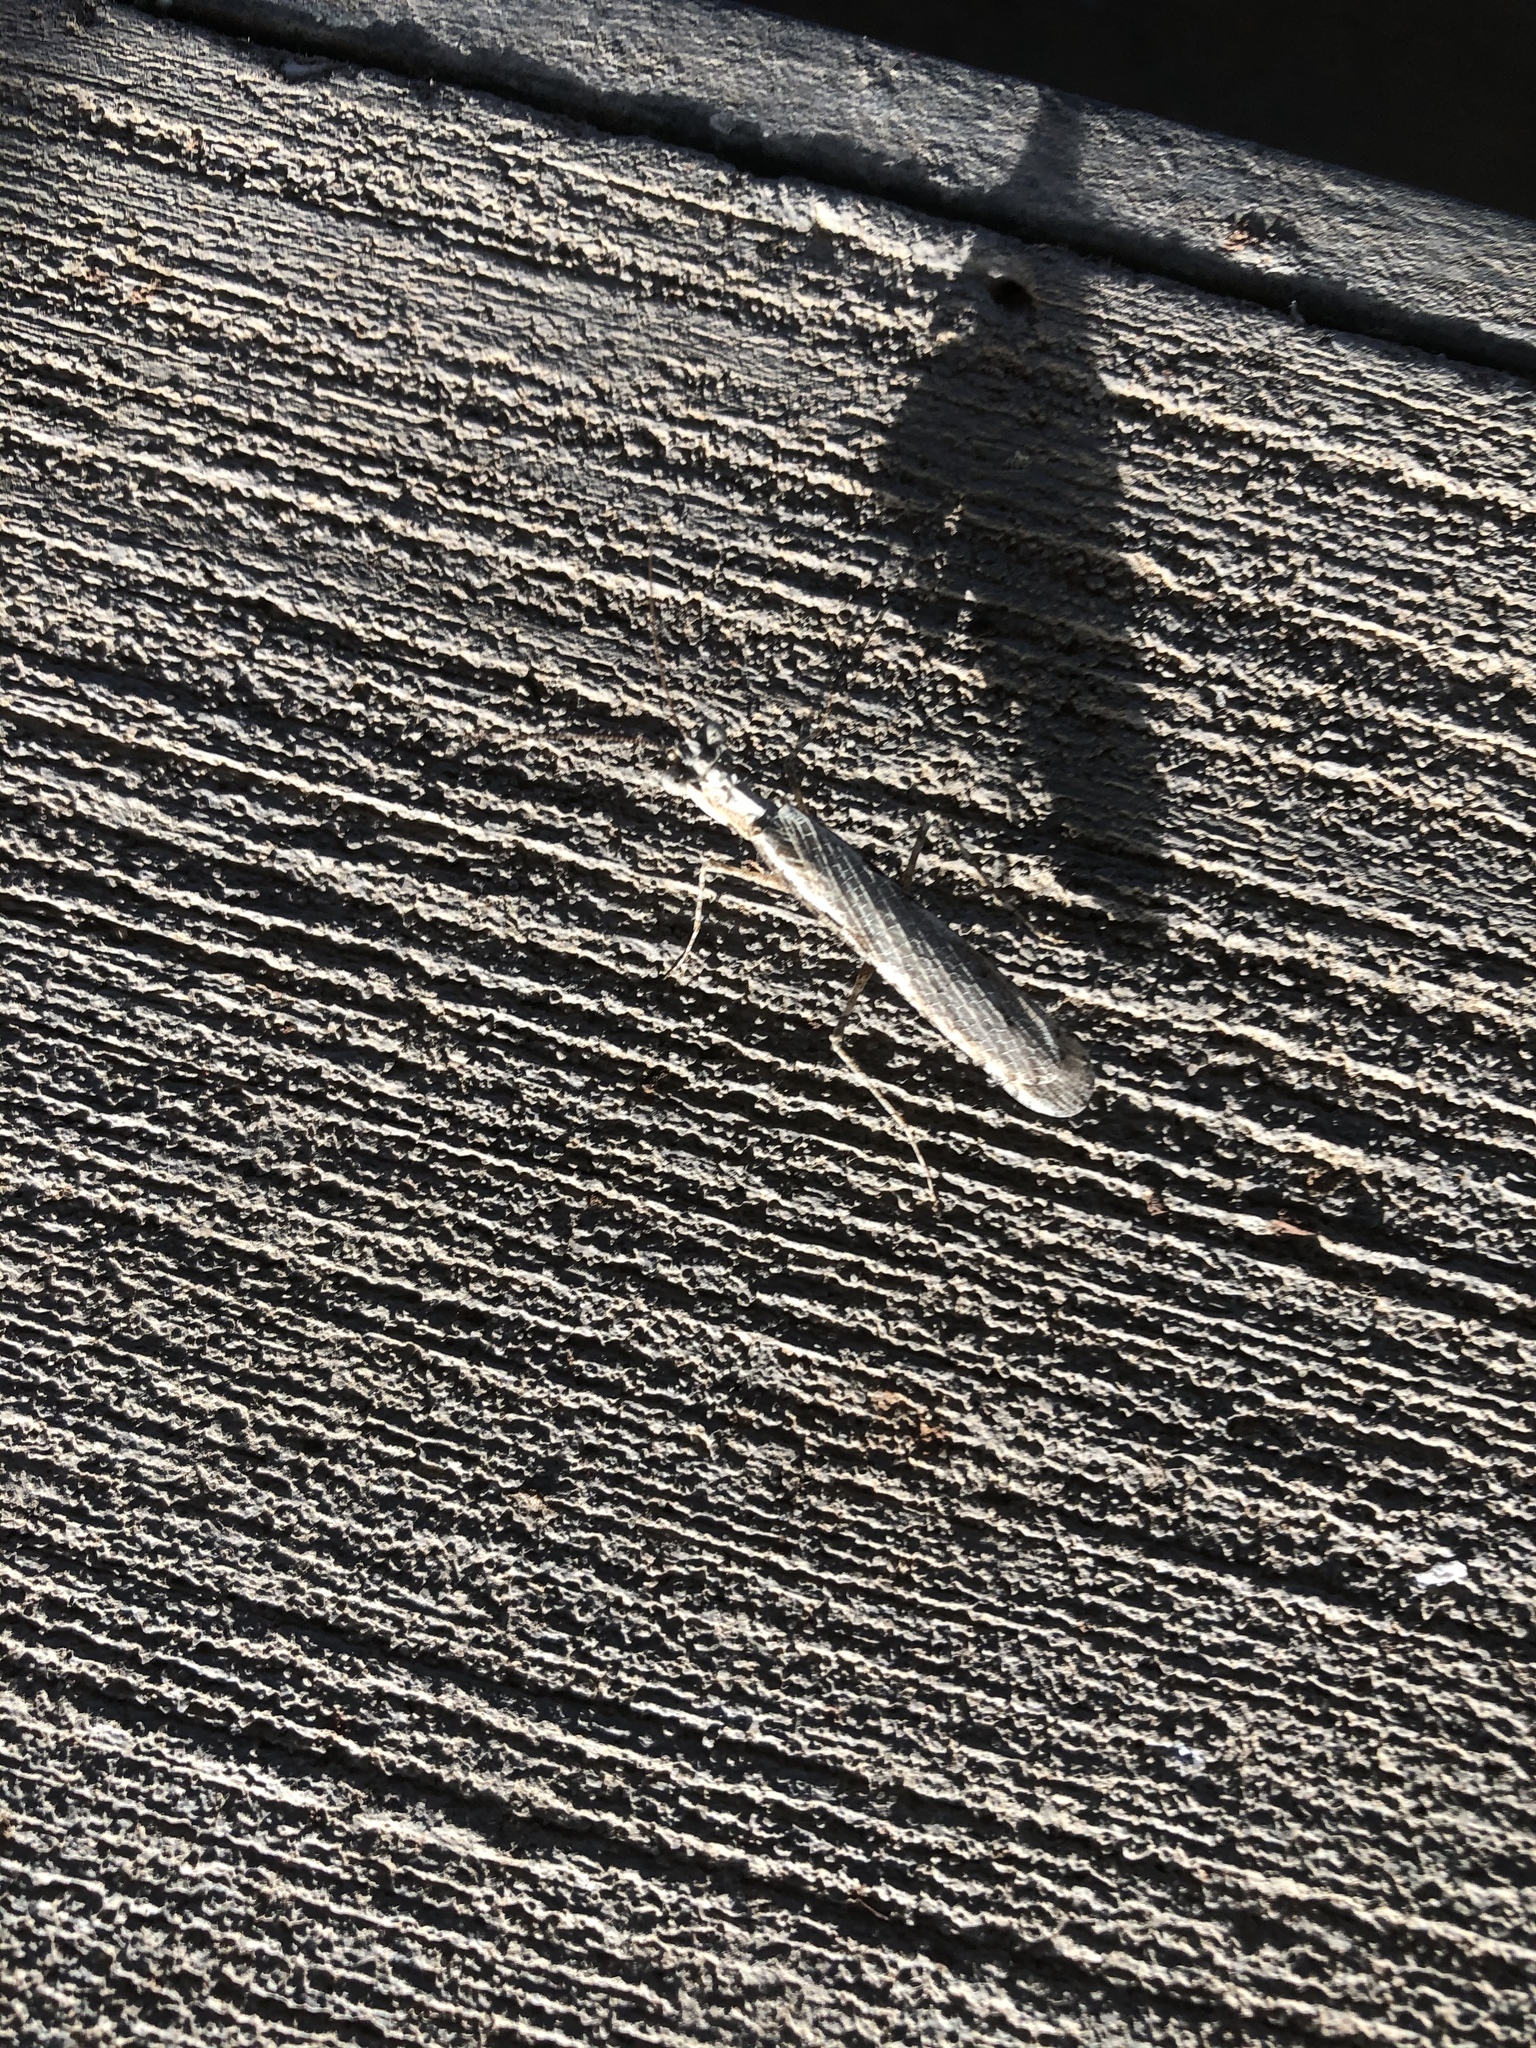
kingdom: Animalia
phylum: Arthropoda
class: Insecta
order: Mantodea
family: Nanomantidae
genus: Metoxypilus
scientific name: Metoxypilus lobifrons
